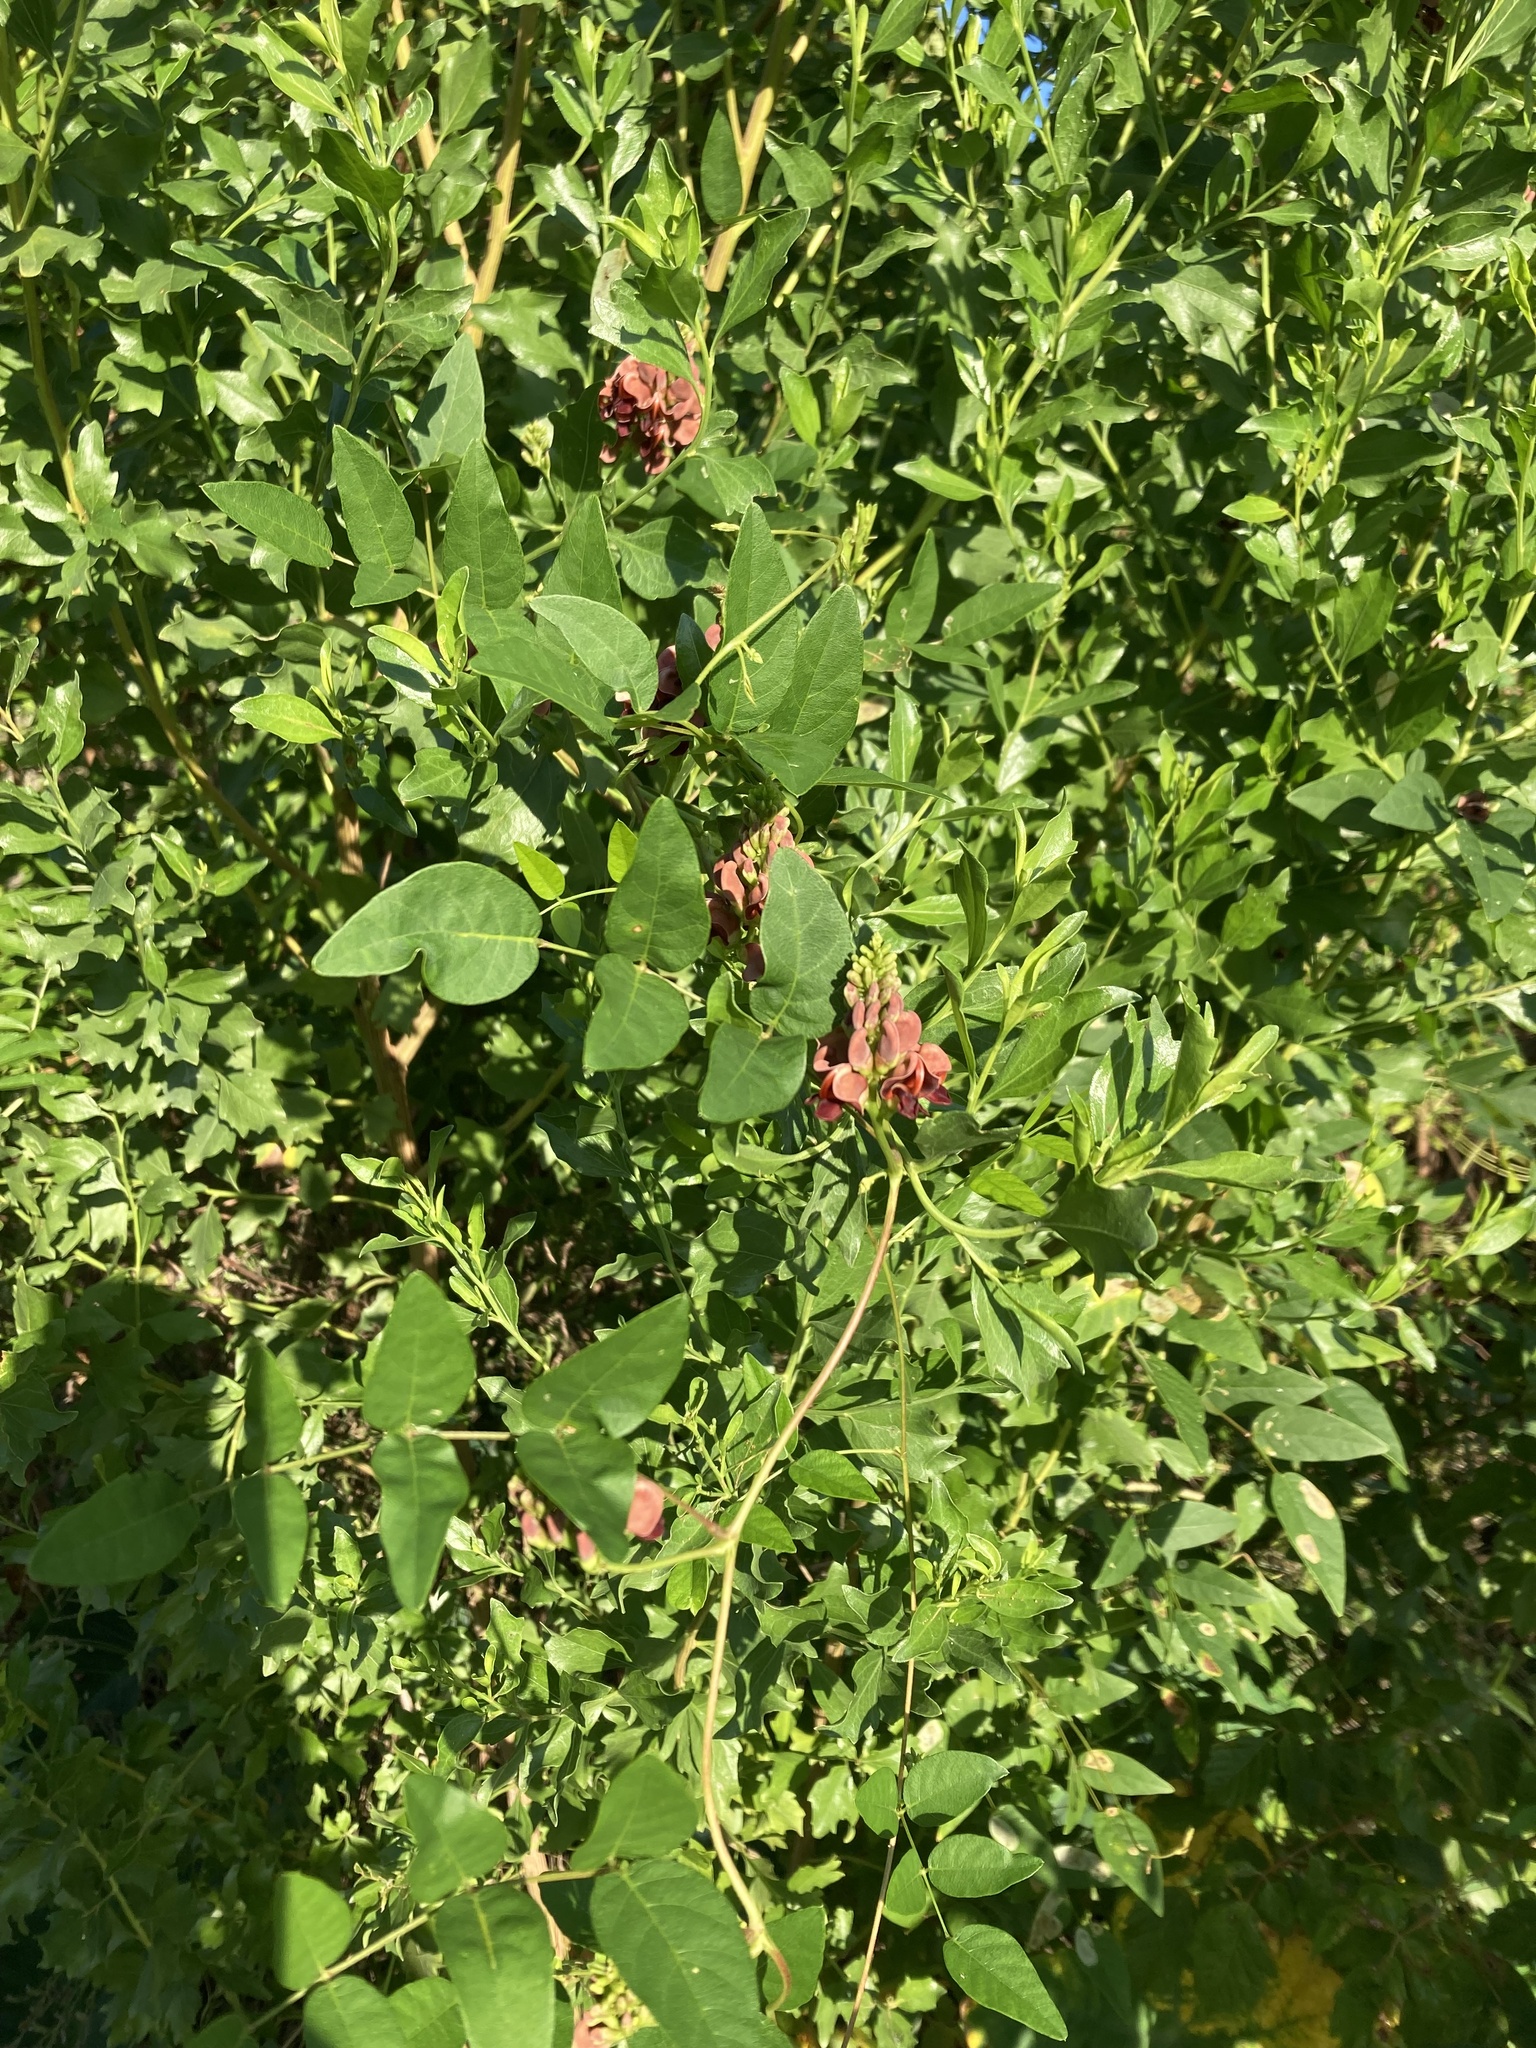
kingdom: Plantae
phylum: Tracheophyta
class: Magnoliopsida
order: Fabales
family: Fabaceae
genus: Apios
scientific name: Apios americana
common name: American potato-bean
